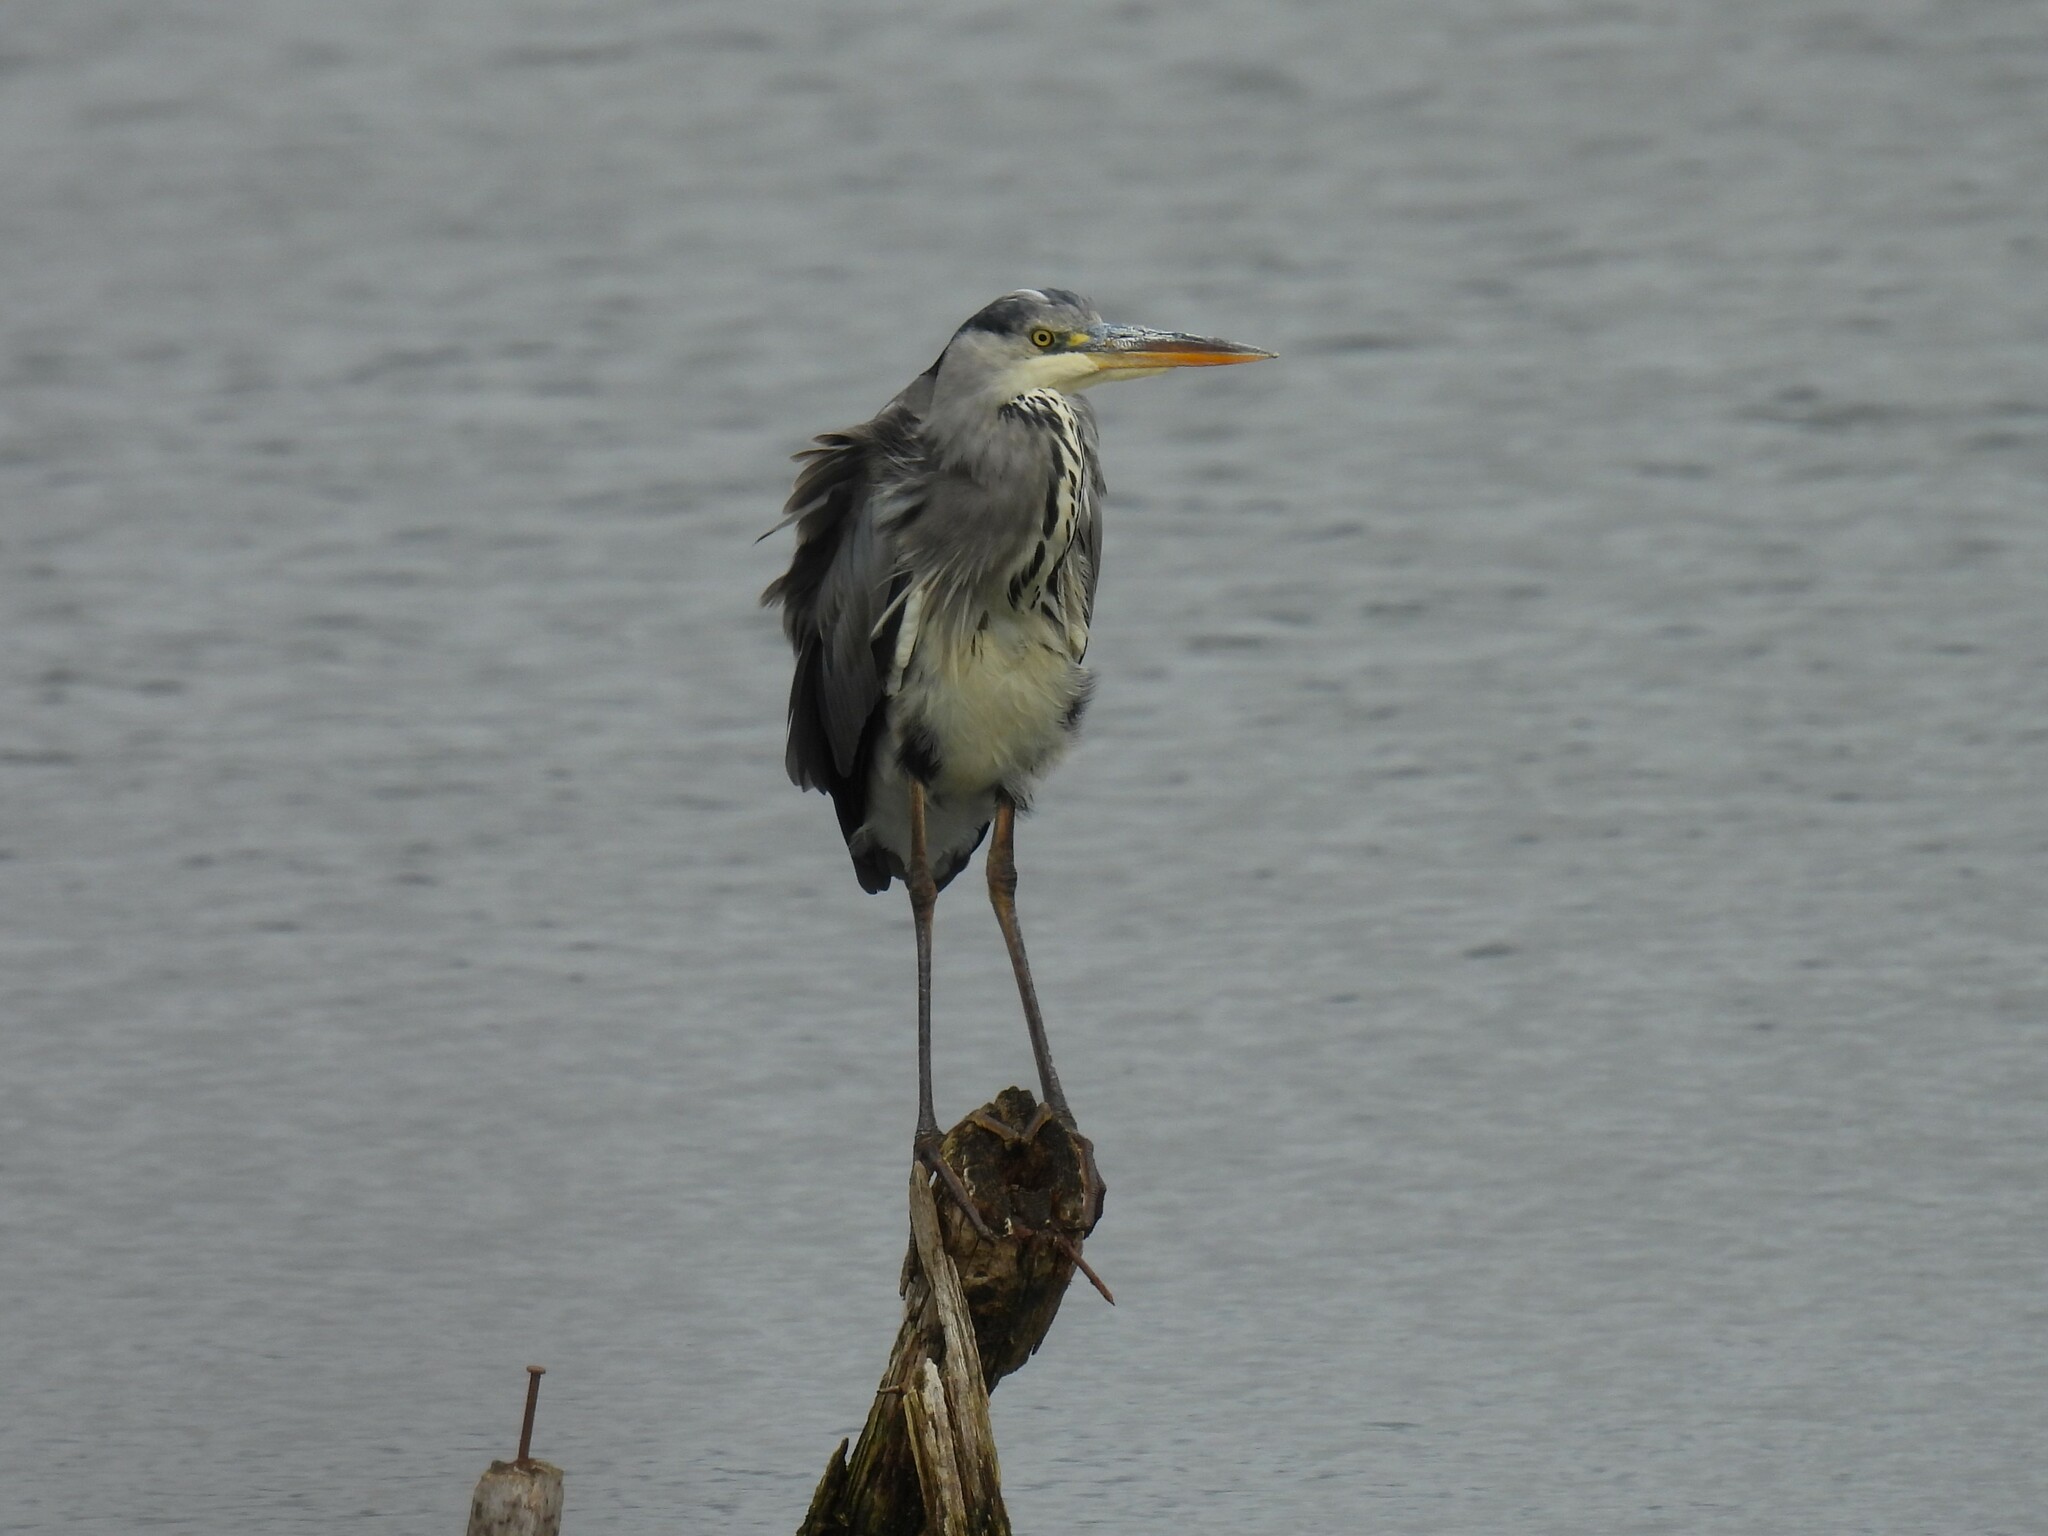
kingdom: Animalia
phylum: Chordata
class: Aves
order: Pelecaniformes
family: Ardeidae
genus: Ardea
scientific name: Ardea cinerea
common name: Grey heron
